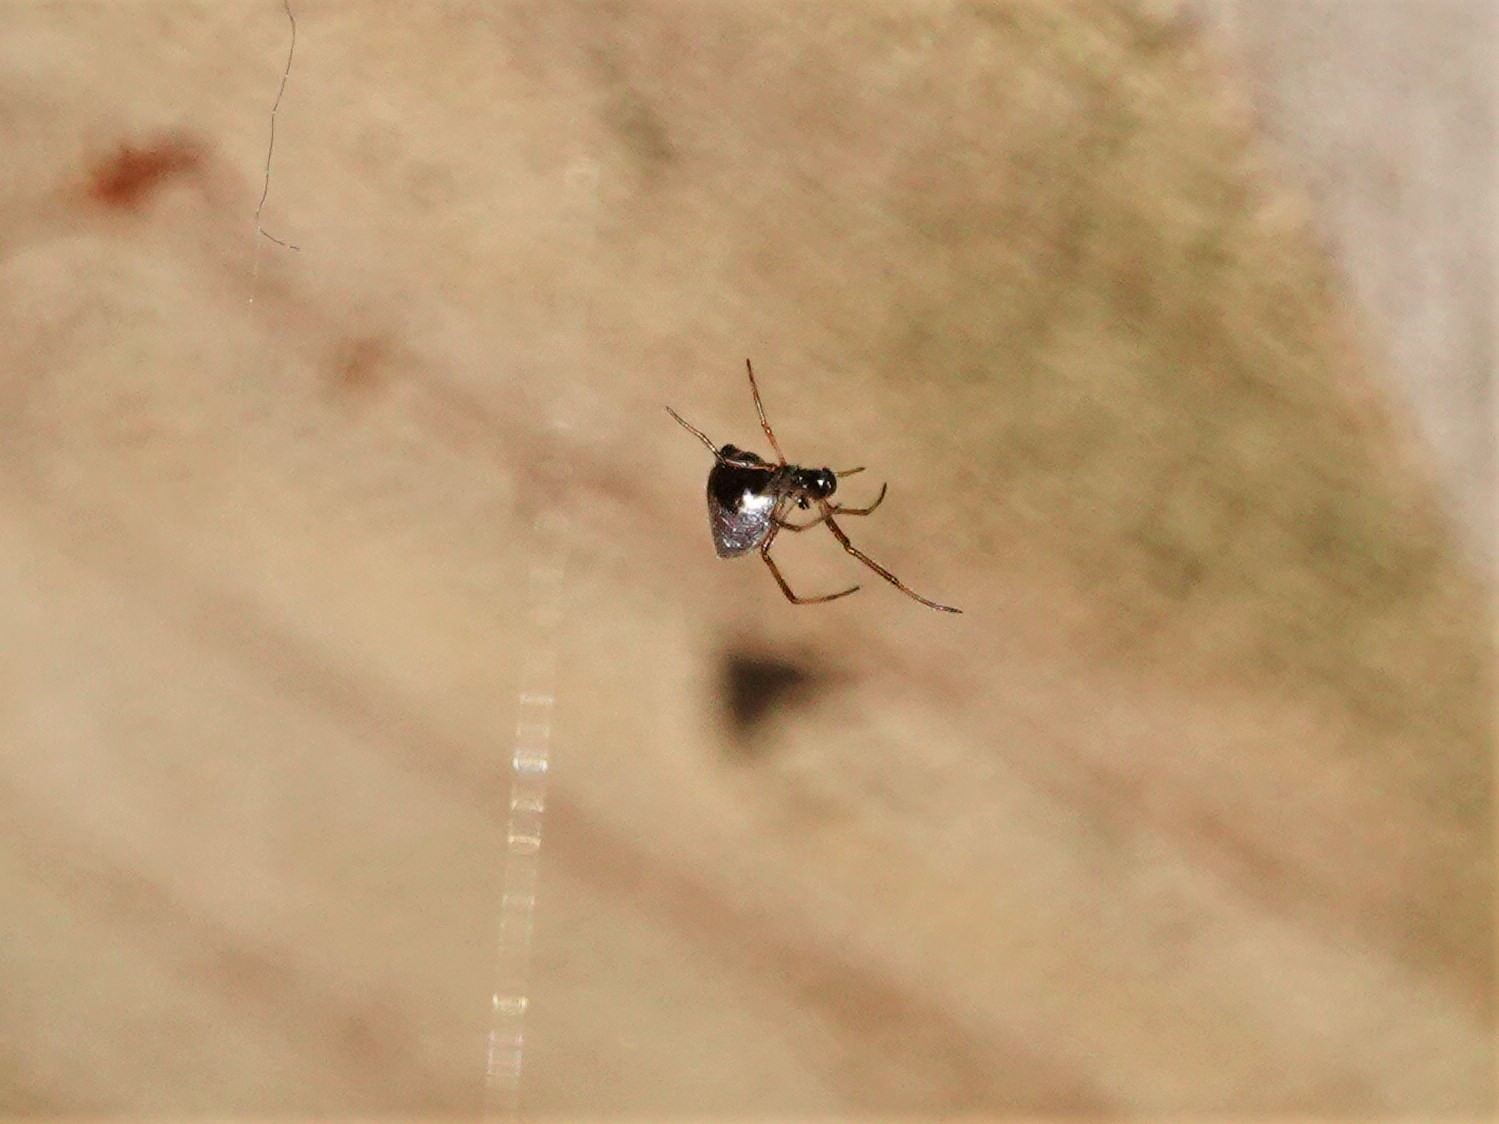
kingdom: Animalia
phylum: Arthropoda
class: Arachnida
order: Araneae
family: Theridiidae
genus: Argyrodes
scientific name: Argyrodes antipodianus
